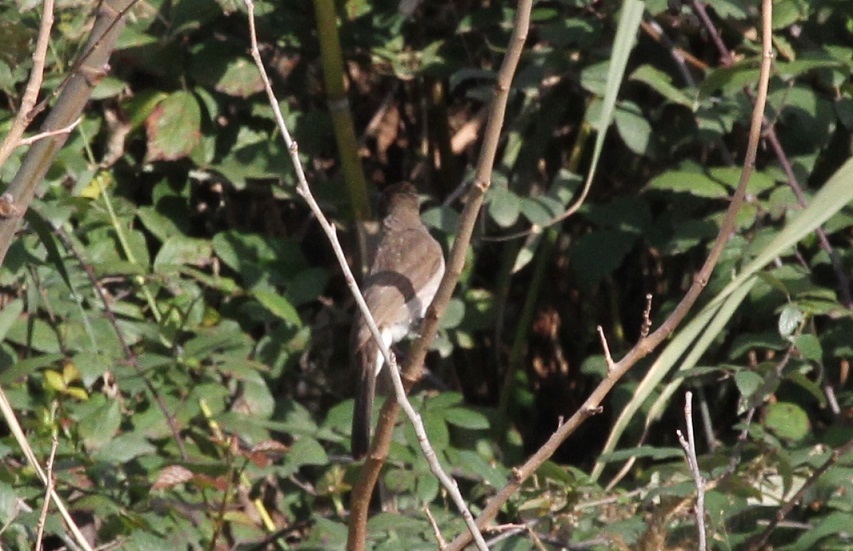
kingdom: Animalia
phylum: Chordata
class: Aves
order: Passeriformes
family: Pycnonotidae
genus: Pycnonotus
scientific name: Pycnonotus barbatus
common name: Common bulbul
